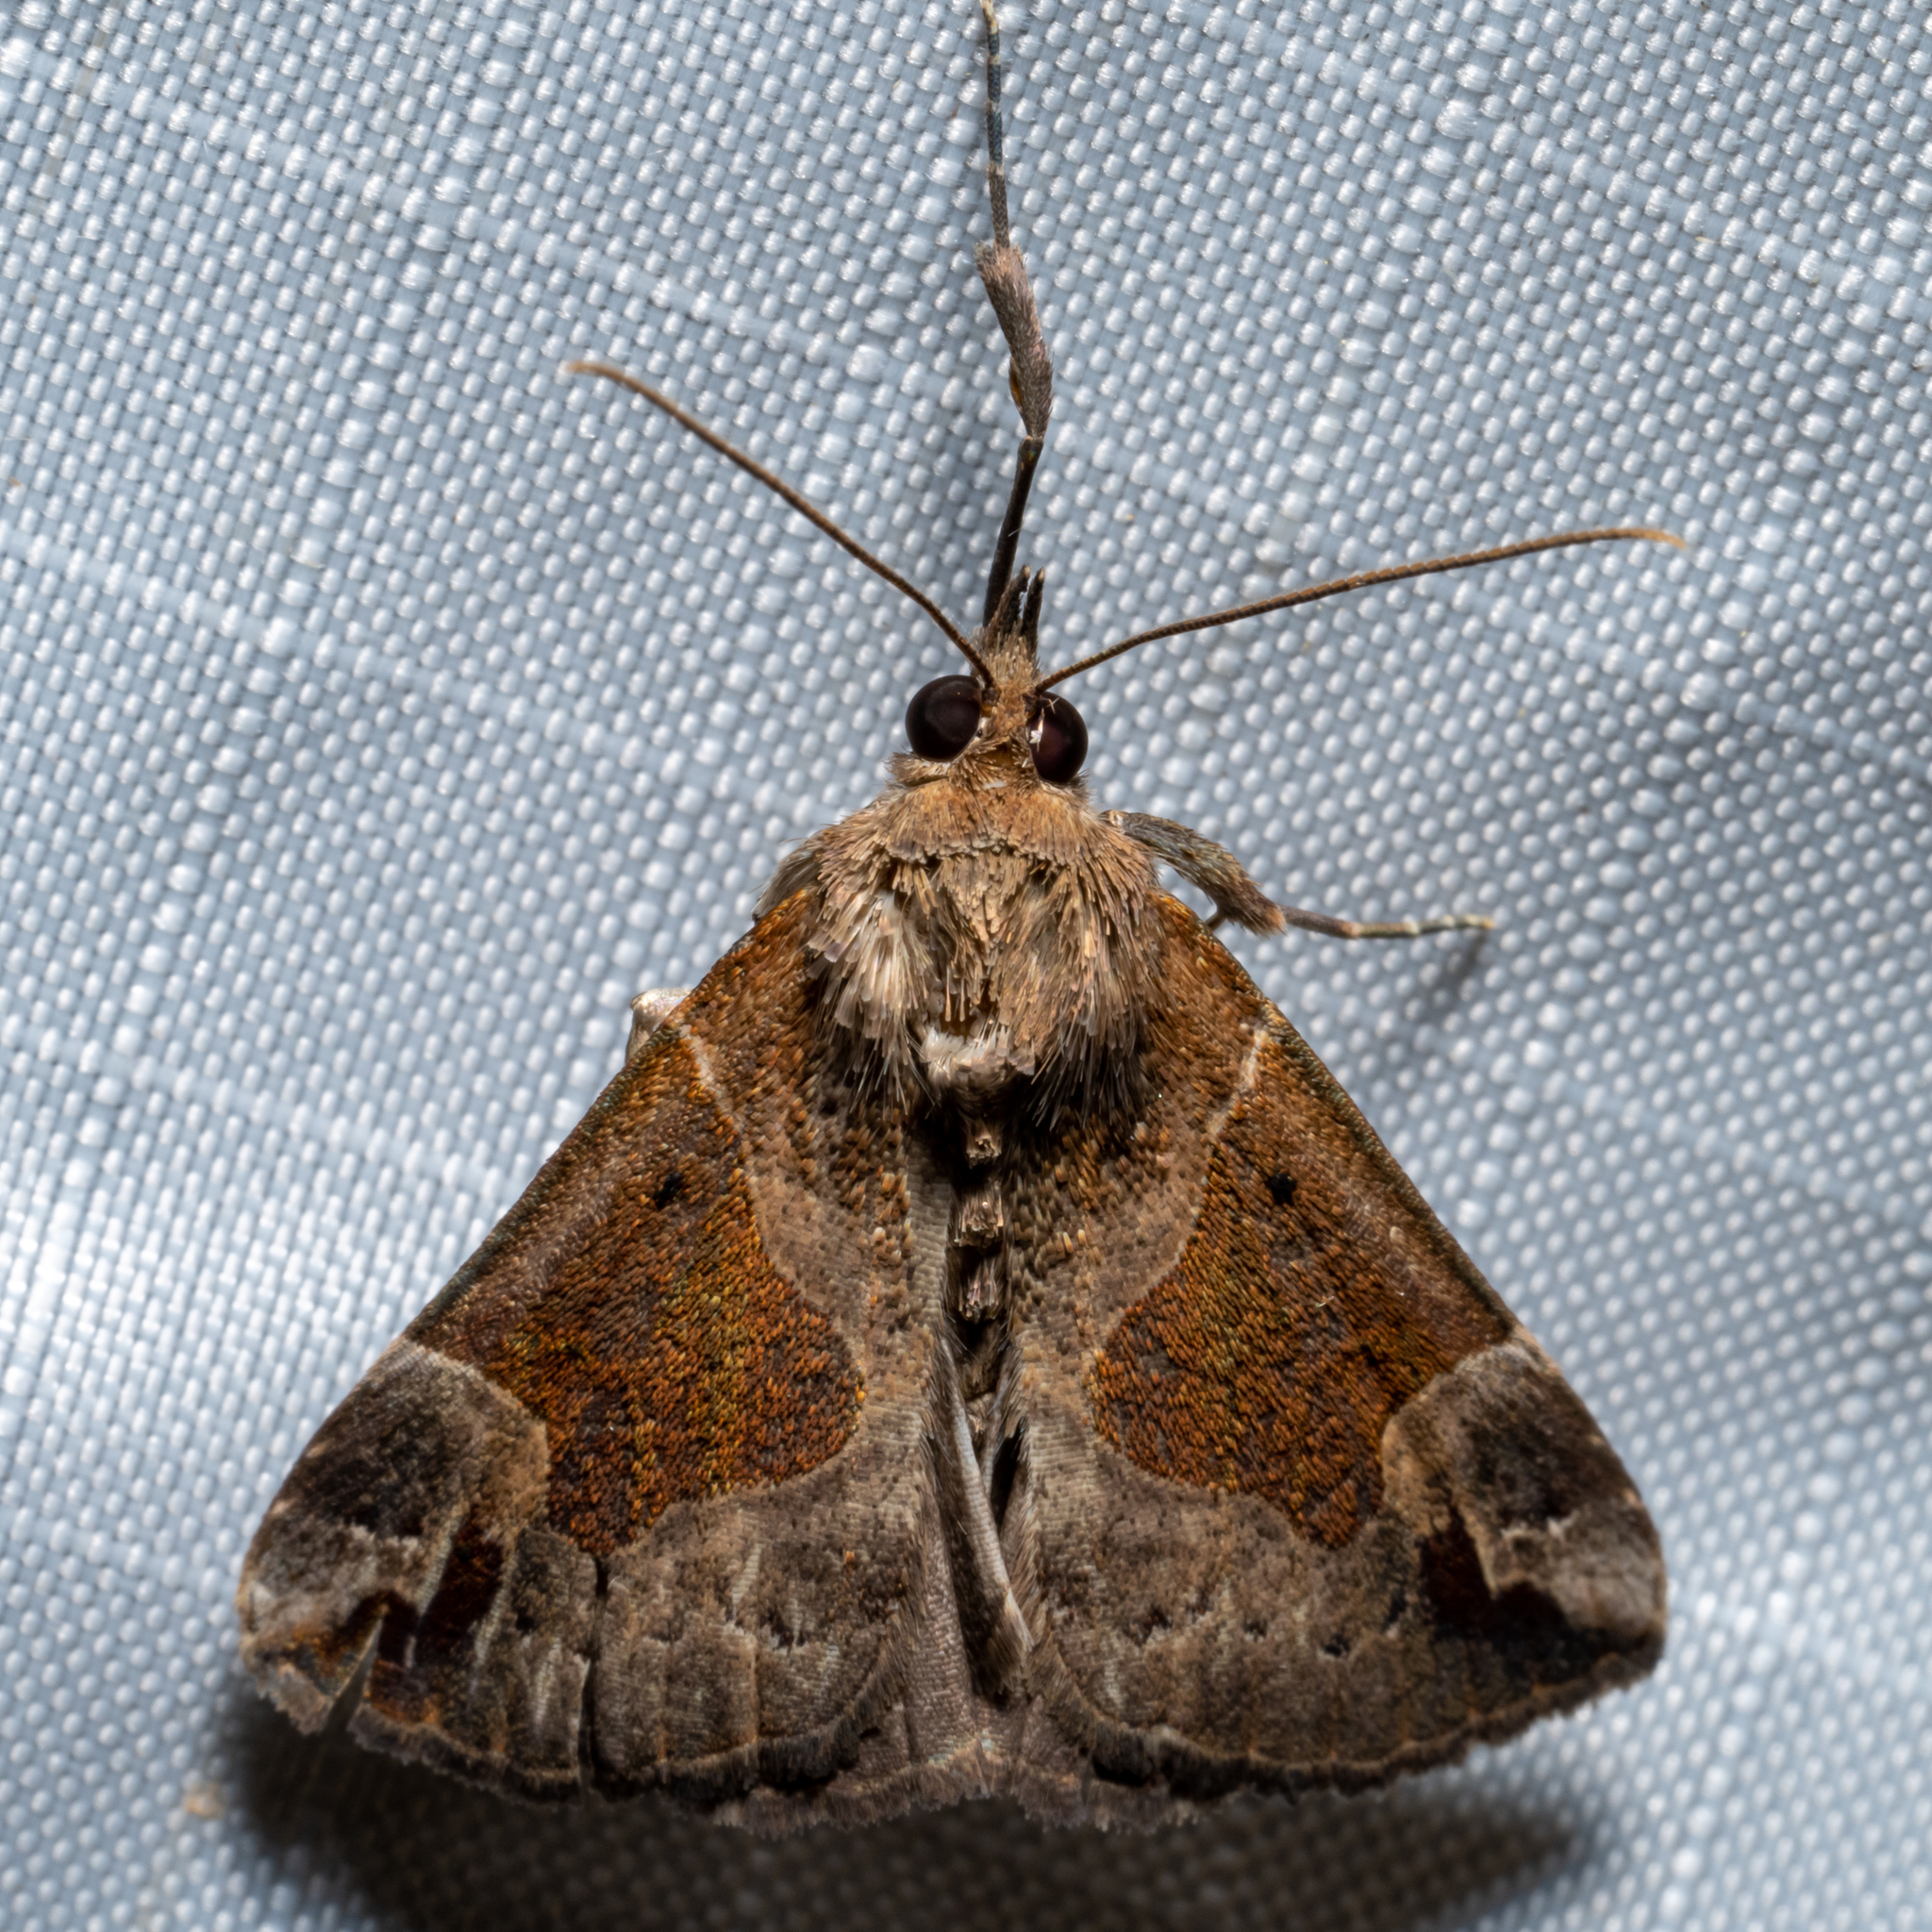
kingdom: Animalia
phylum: Arthropoda
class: Insecta
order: Lepidoptera
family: Erebidae
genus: Hypena
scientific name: Hypena manalis
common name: Flowing-line bomolocha moth
